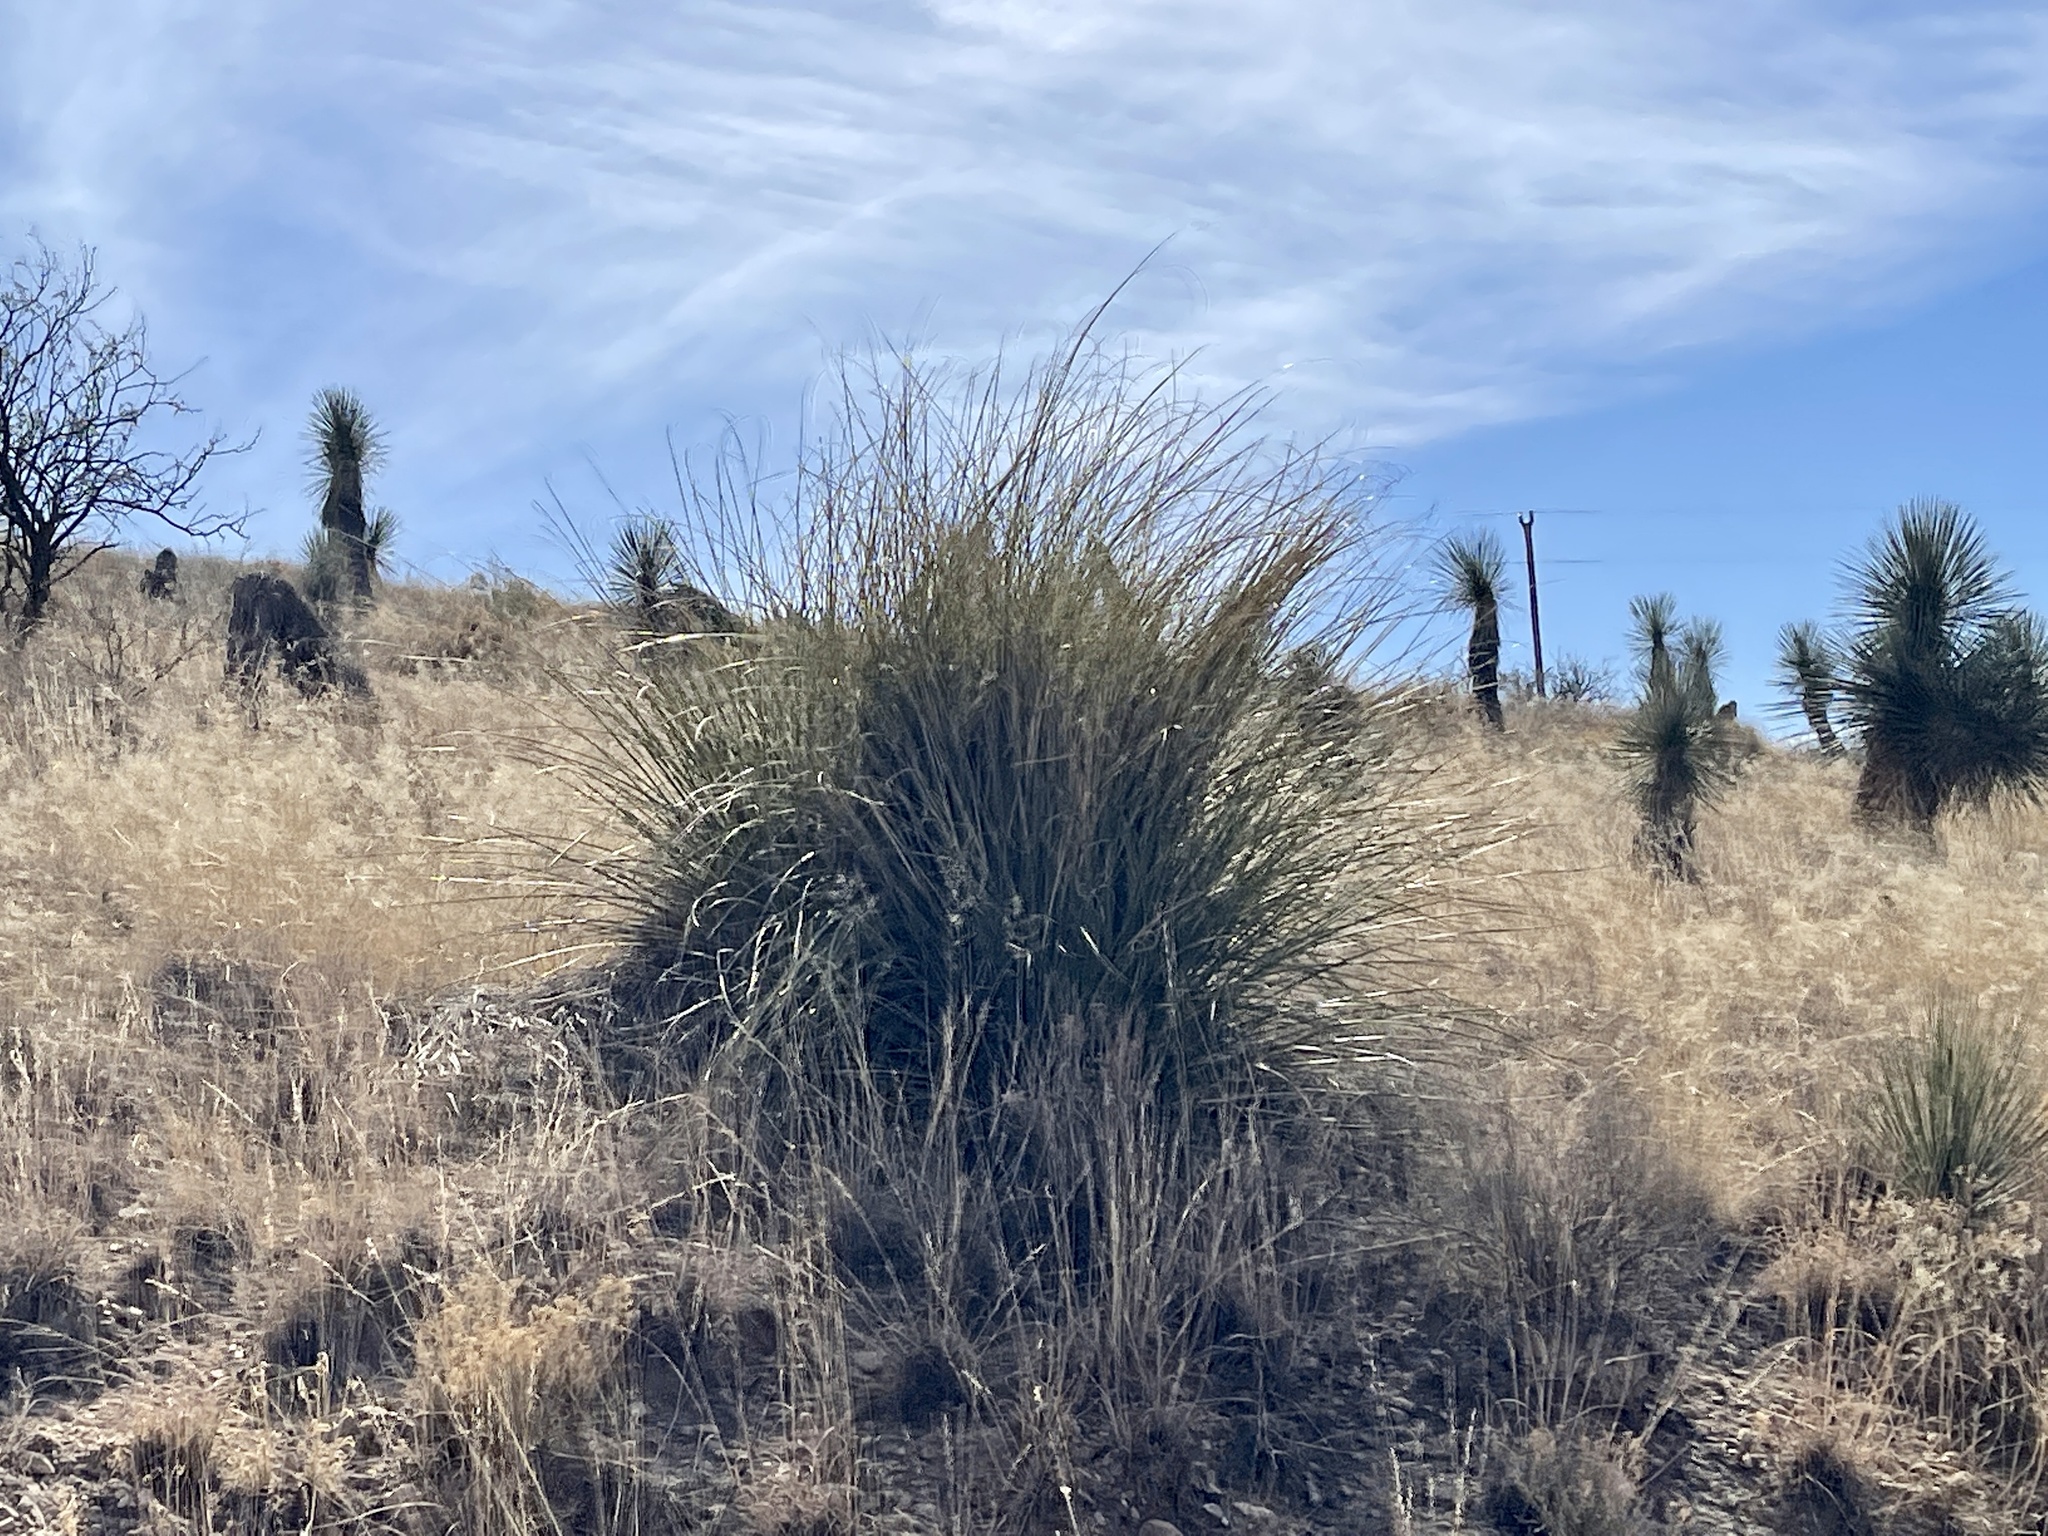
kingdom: Plantae
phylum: Tracheophyta
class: Liliopsida
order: Asparagales
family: Asparagaceae
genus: Nolina
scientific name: Nolina microcarpa
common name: Bear-grass
